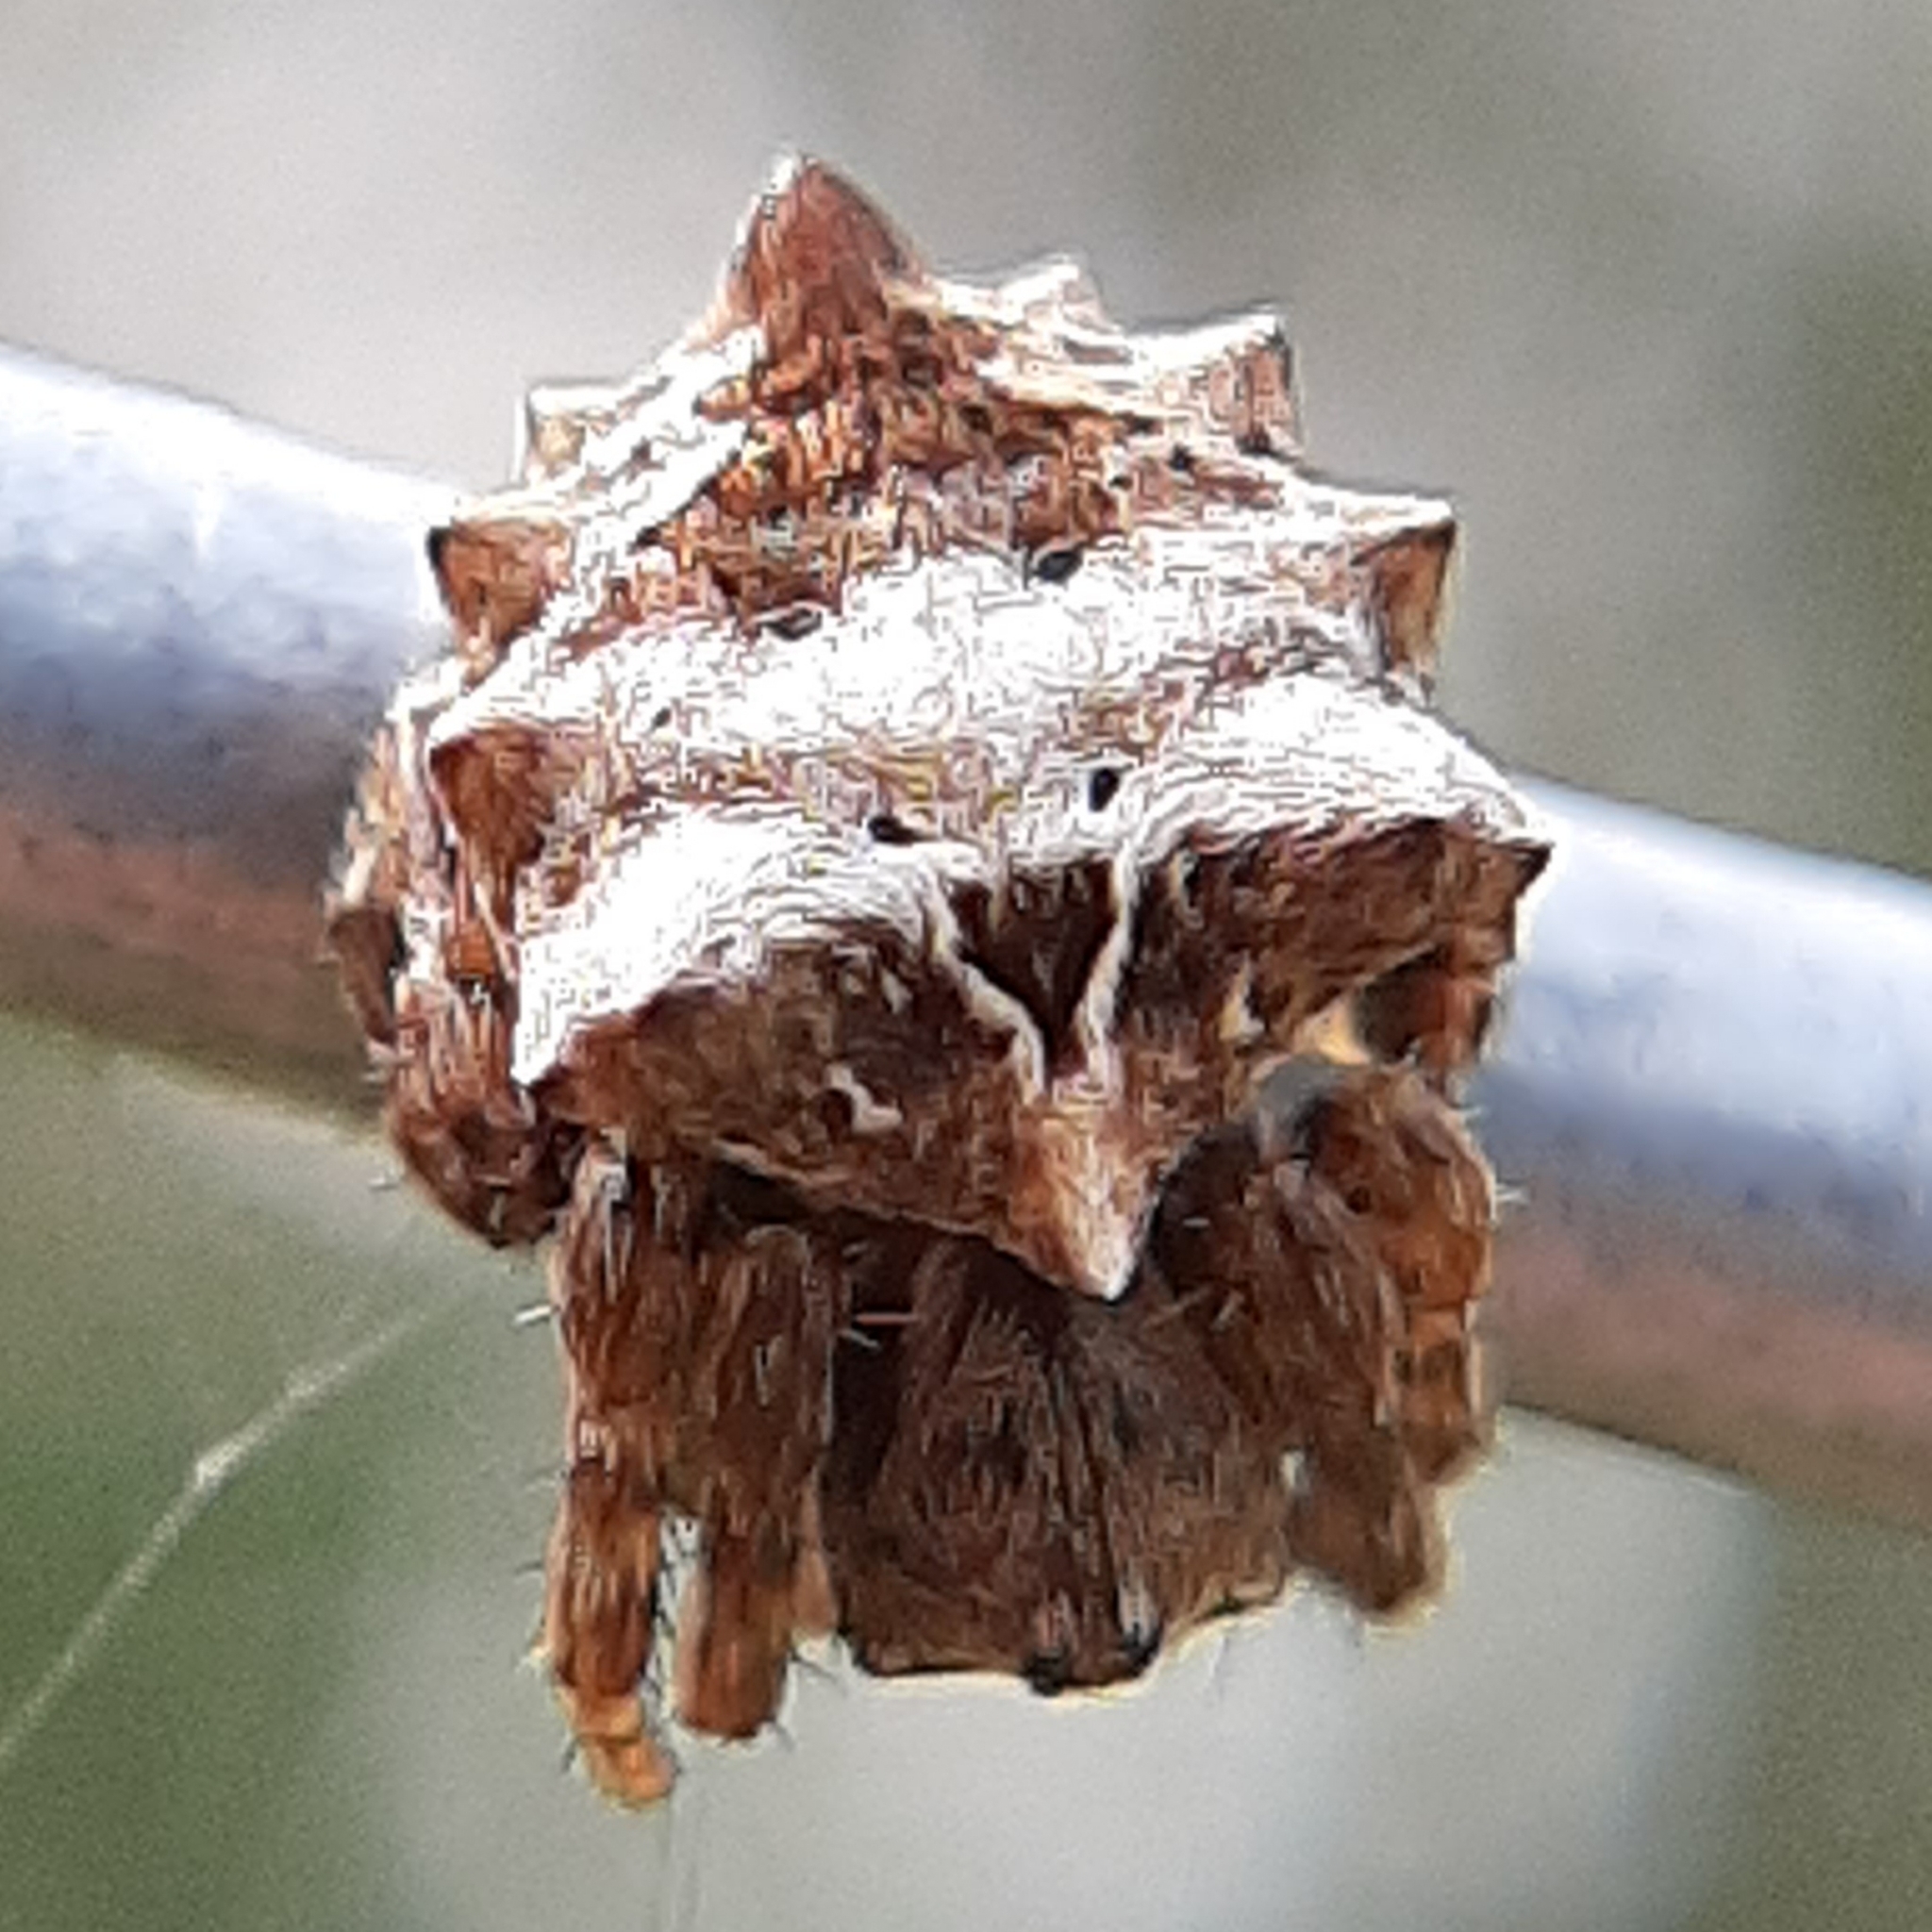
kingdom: Animalia
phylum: Arthropoda
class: Arachnida
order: Araneae
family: Araneidae
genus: Acanthepeira
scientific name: Acanthepeira stellata
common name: Starbellied orbweaver
